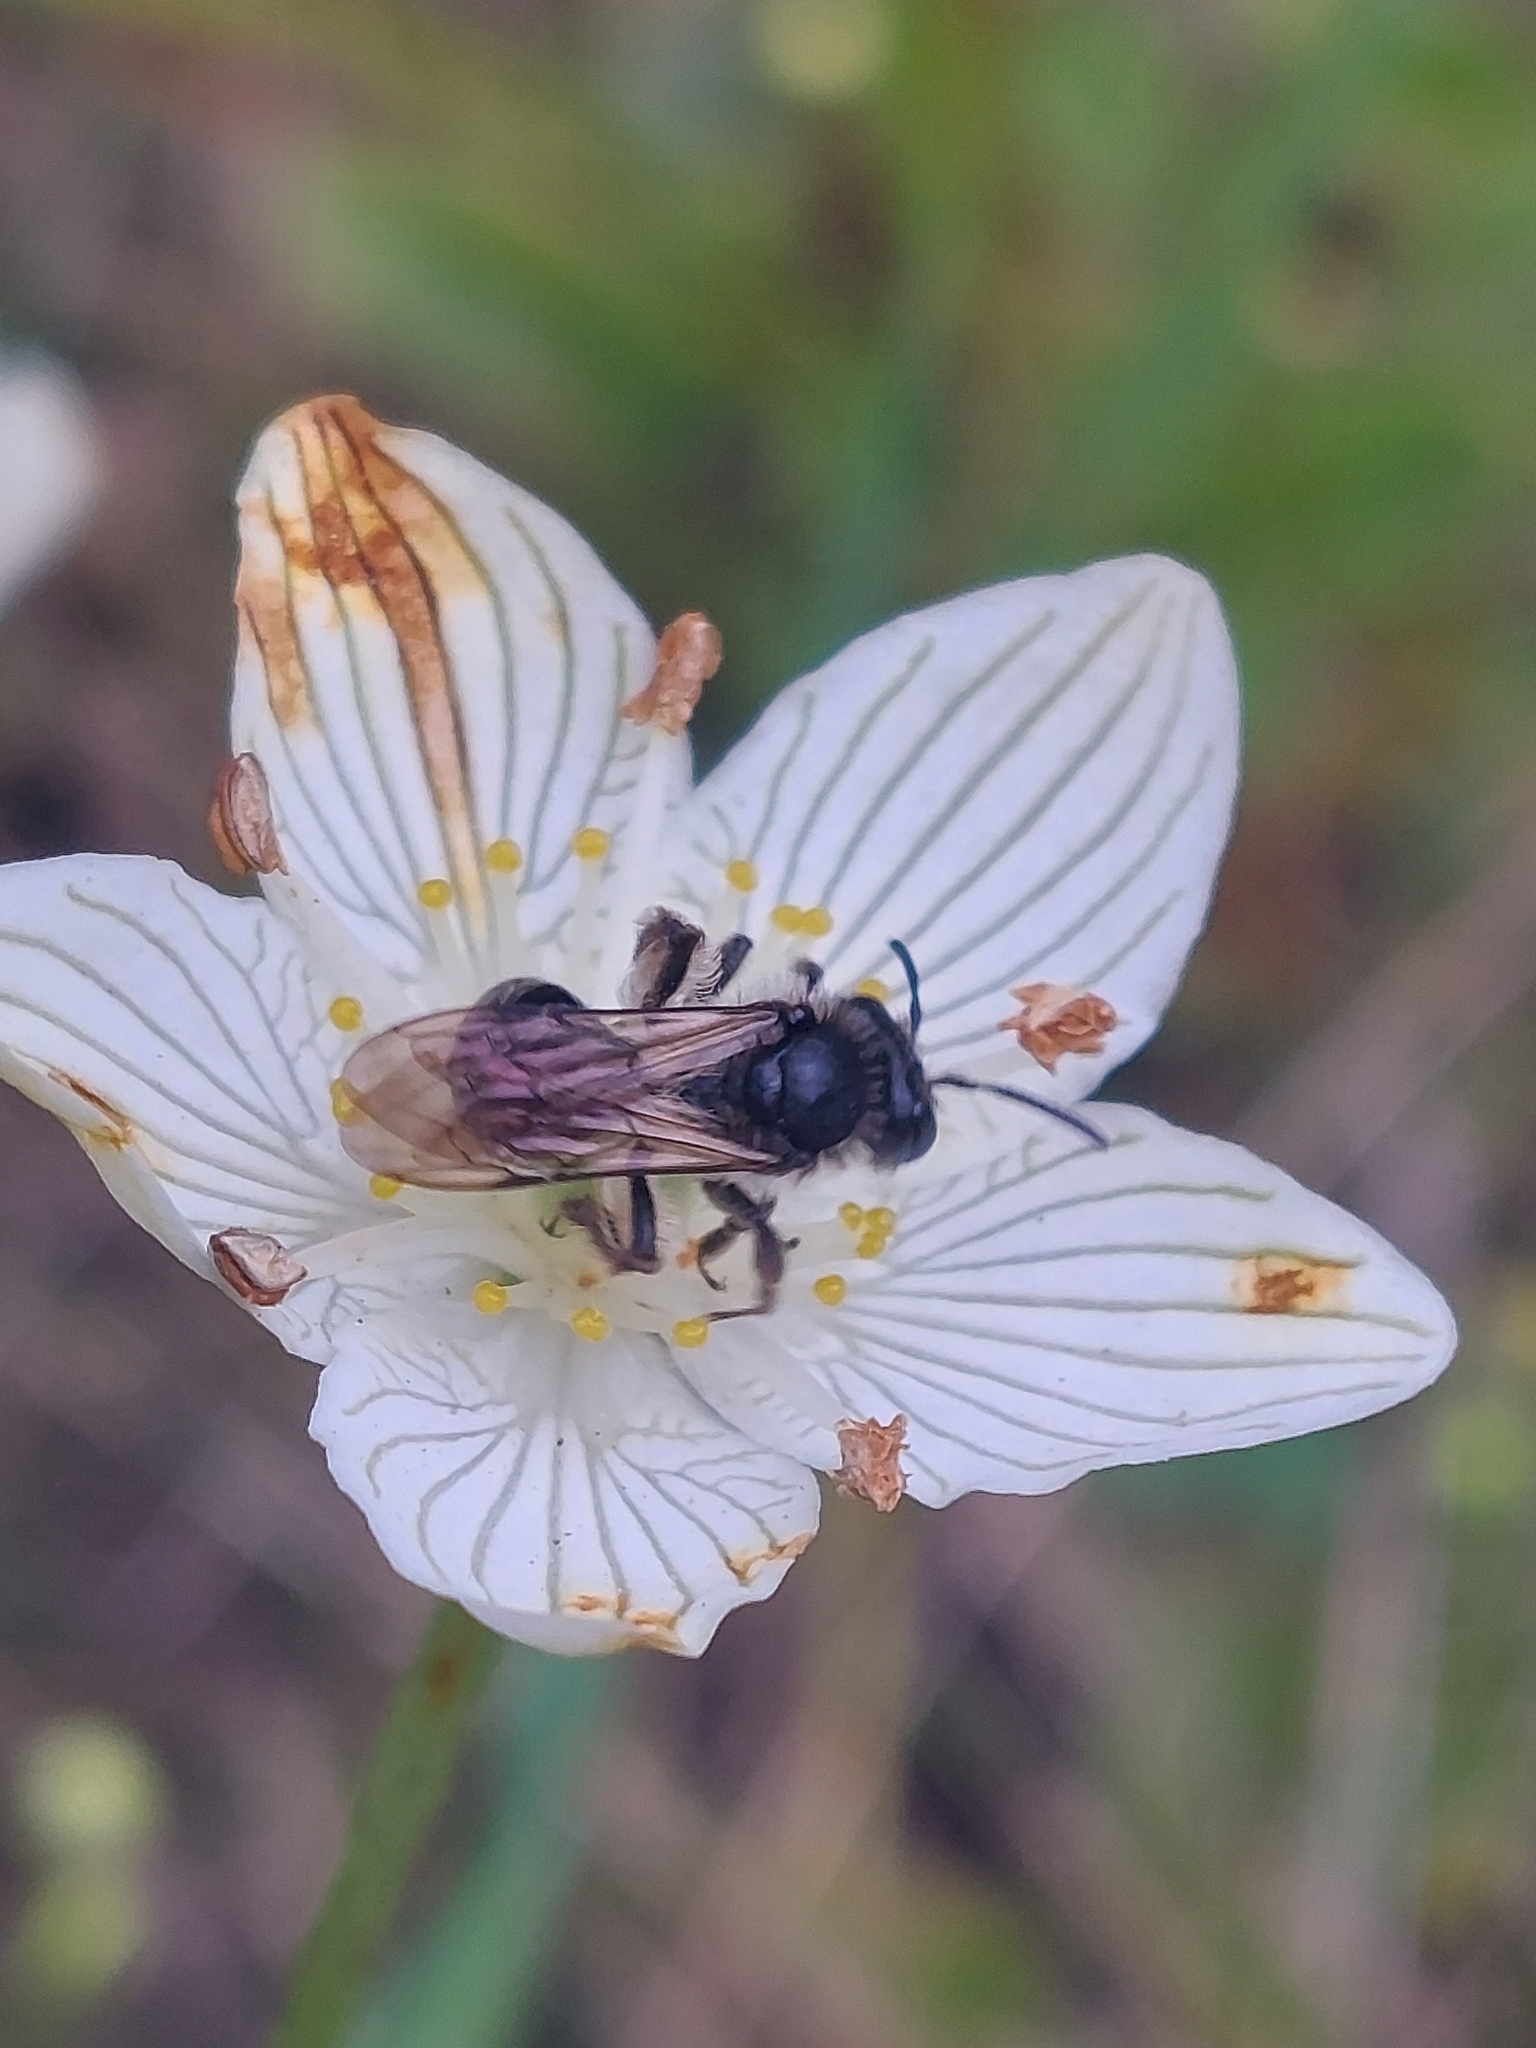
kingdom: Plantae
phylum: Tracheophyta
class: Magnoliopsida
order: Celastrales
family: Parnassiaceae
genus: Parnassia
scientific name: Parnassia glauca
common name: American grass-of-parnassus
